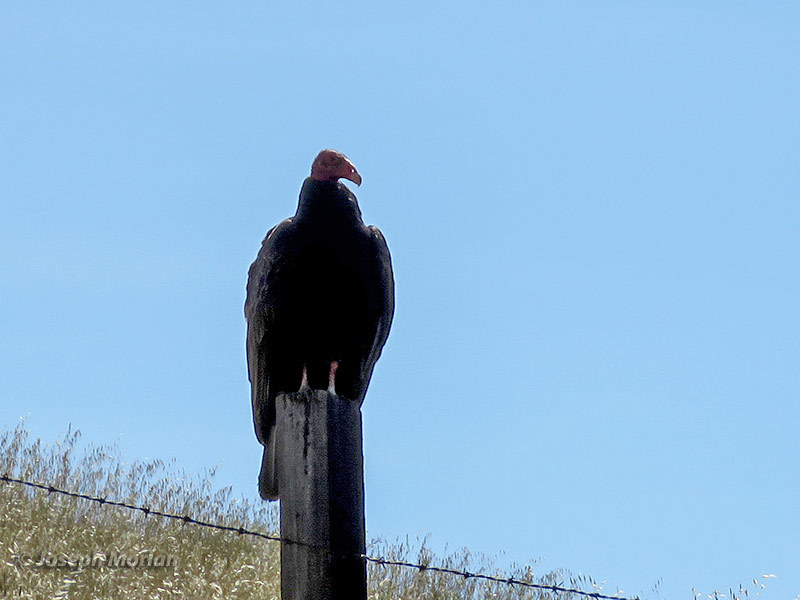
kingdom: Animalia
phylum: Chordata
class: Aves
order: Accipitriformes
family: Cathartidae
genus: Cathartes
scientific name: Cathartes aura
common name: Turkey vulture
